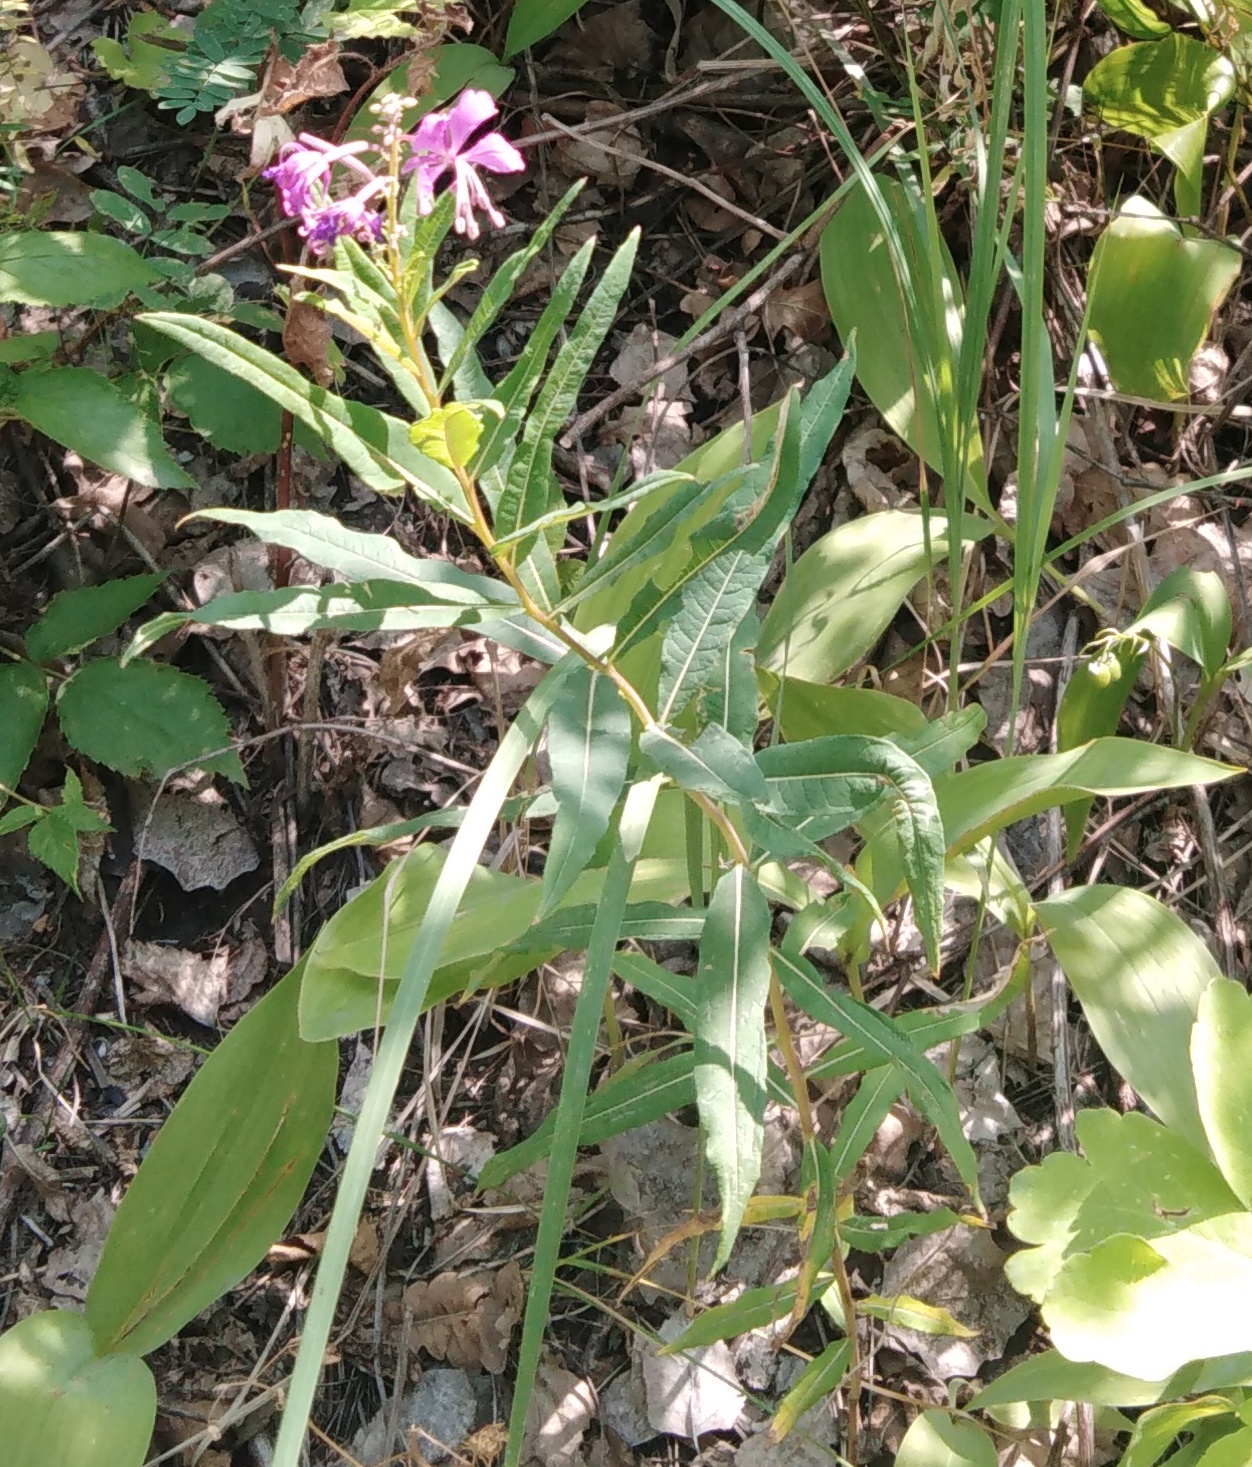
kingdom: Plantae
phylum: Tracheophyta
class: Magnoliopsida
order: Myrtales
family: Onagraceae
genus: Chamaenerion
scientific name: Chamaenerion angustifolium
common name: Fireweed
